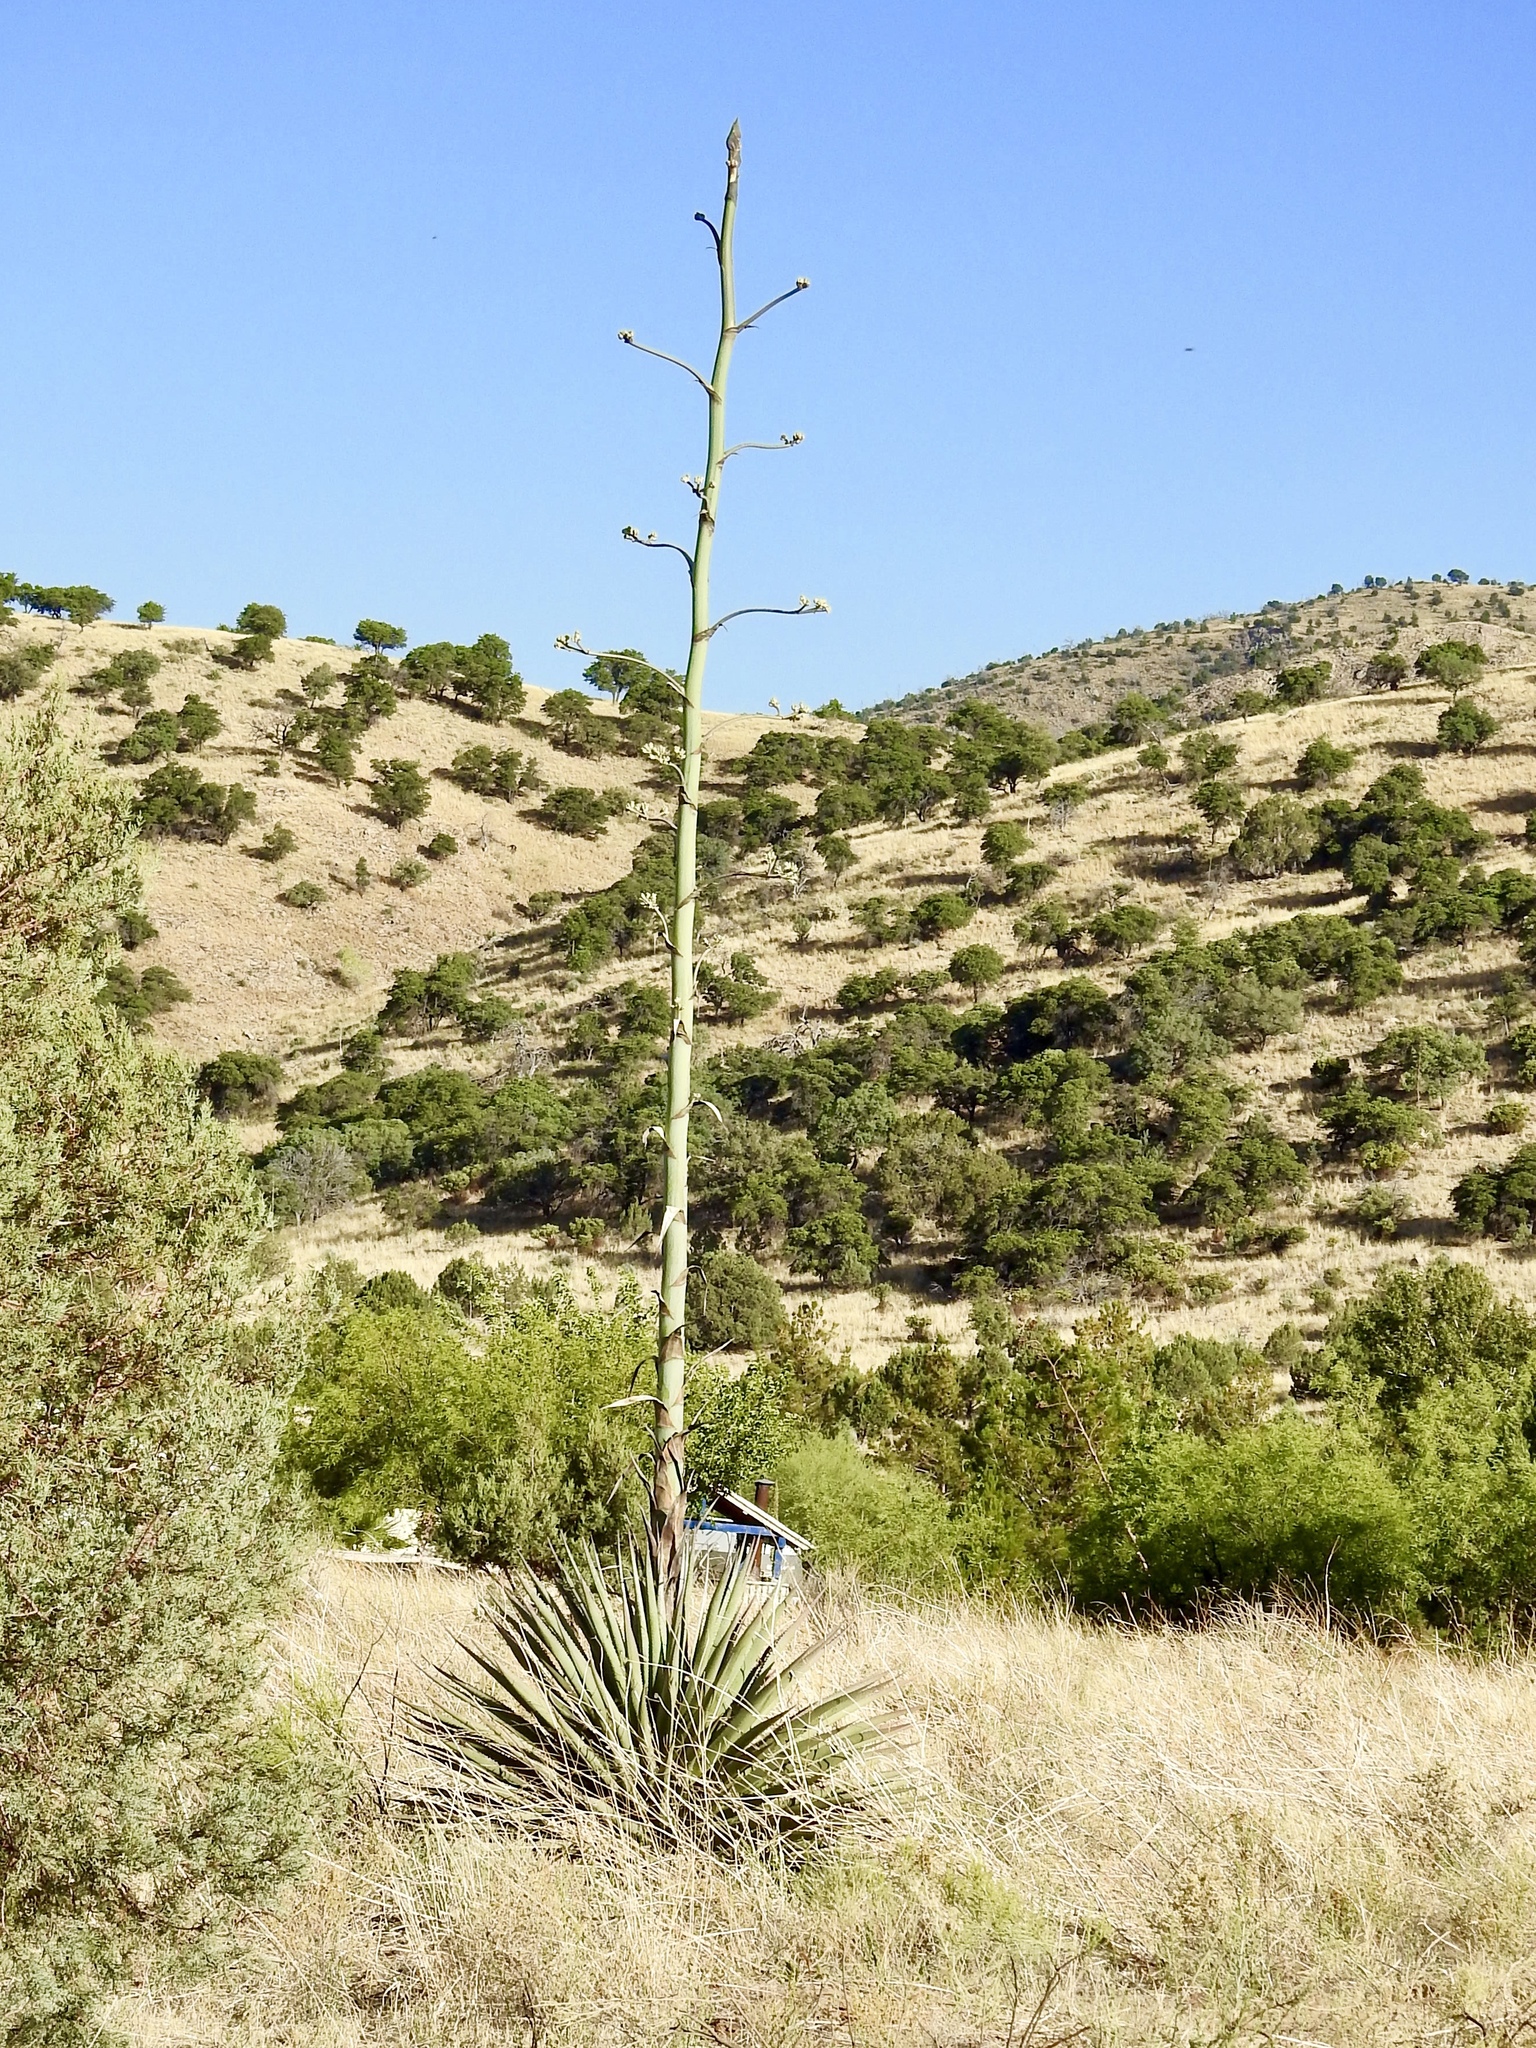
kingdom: Plantae
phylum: Tracheophyta
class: Liliopsida
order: Asparagales
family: Asparagaceae
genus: Agave
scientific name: Agave palmeri
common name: Palmer agave
